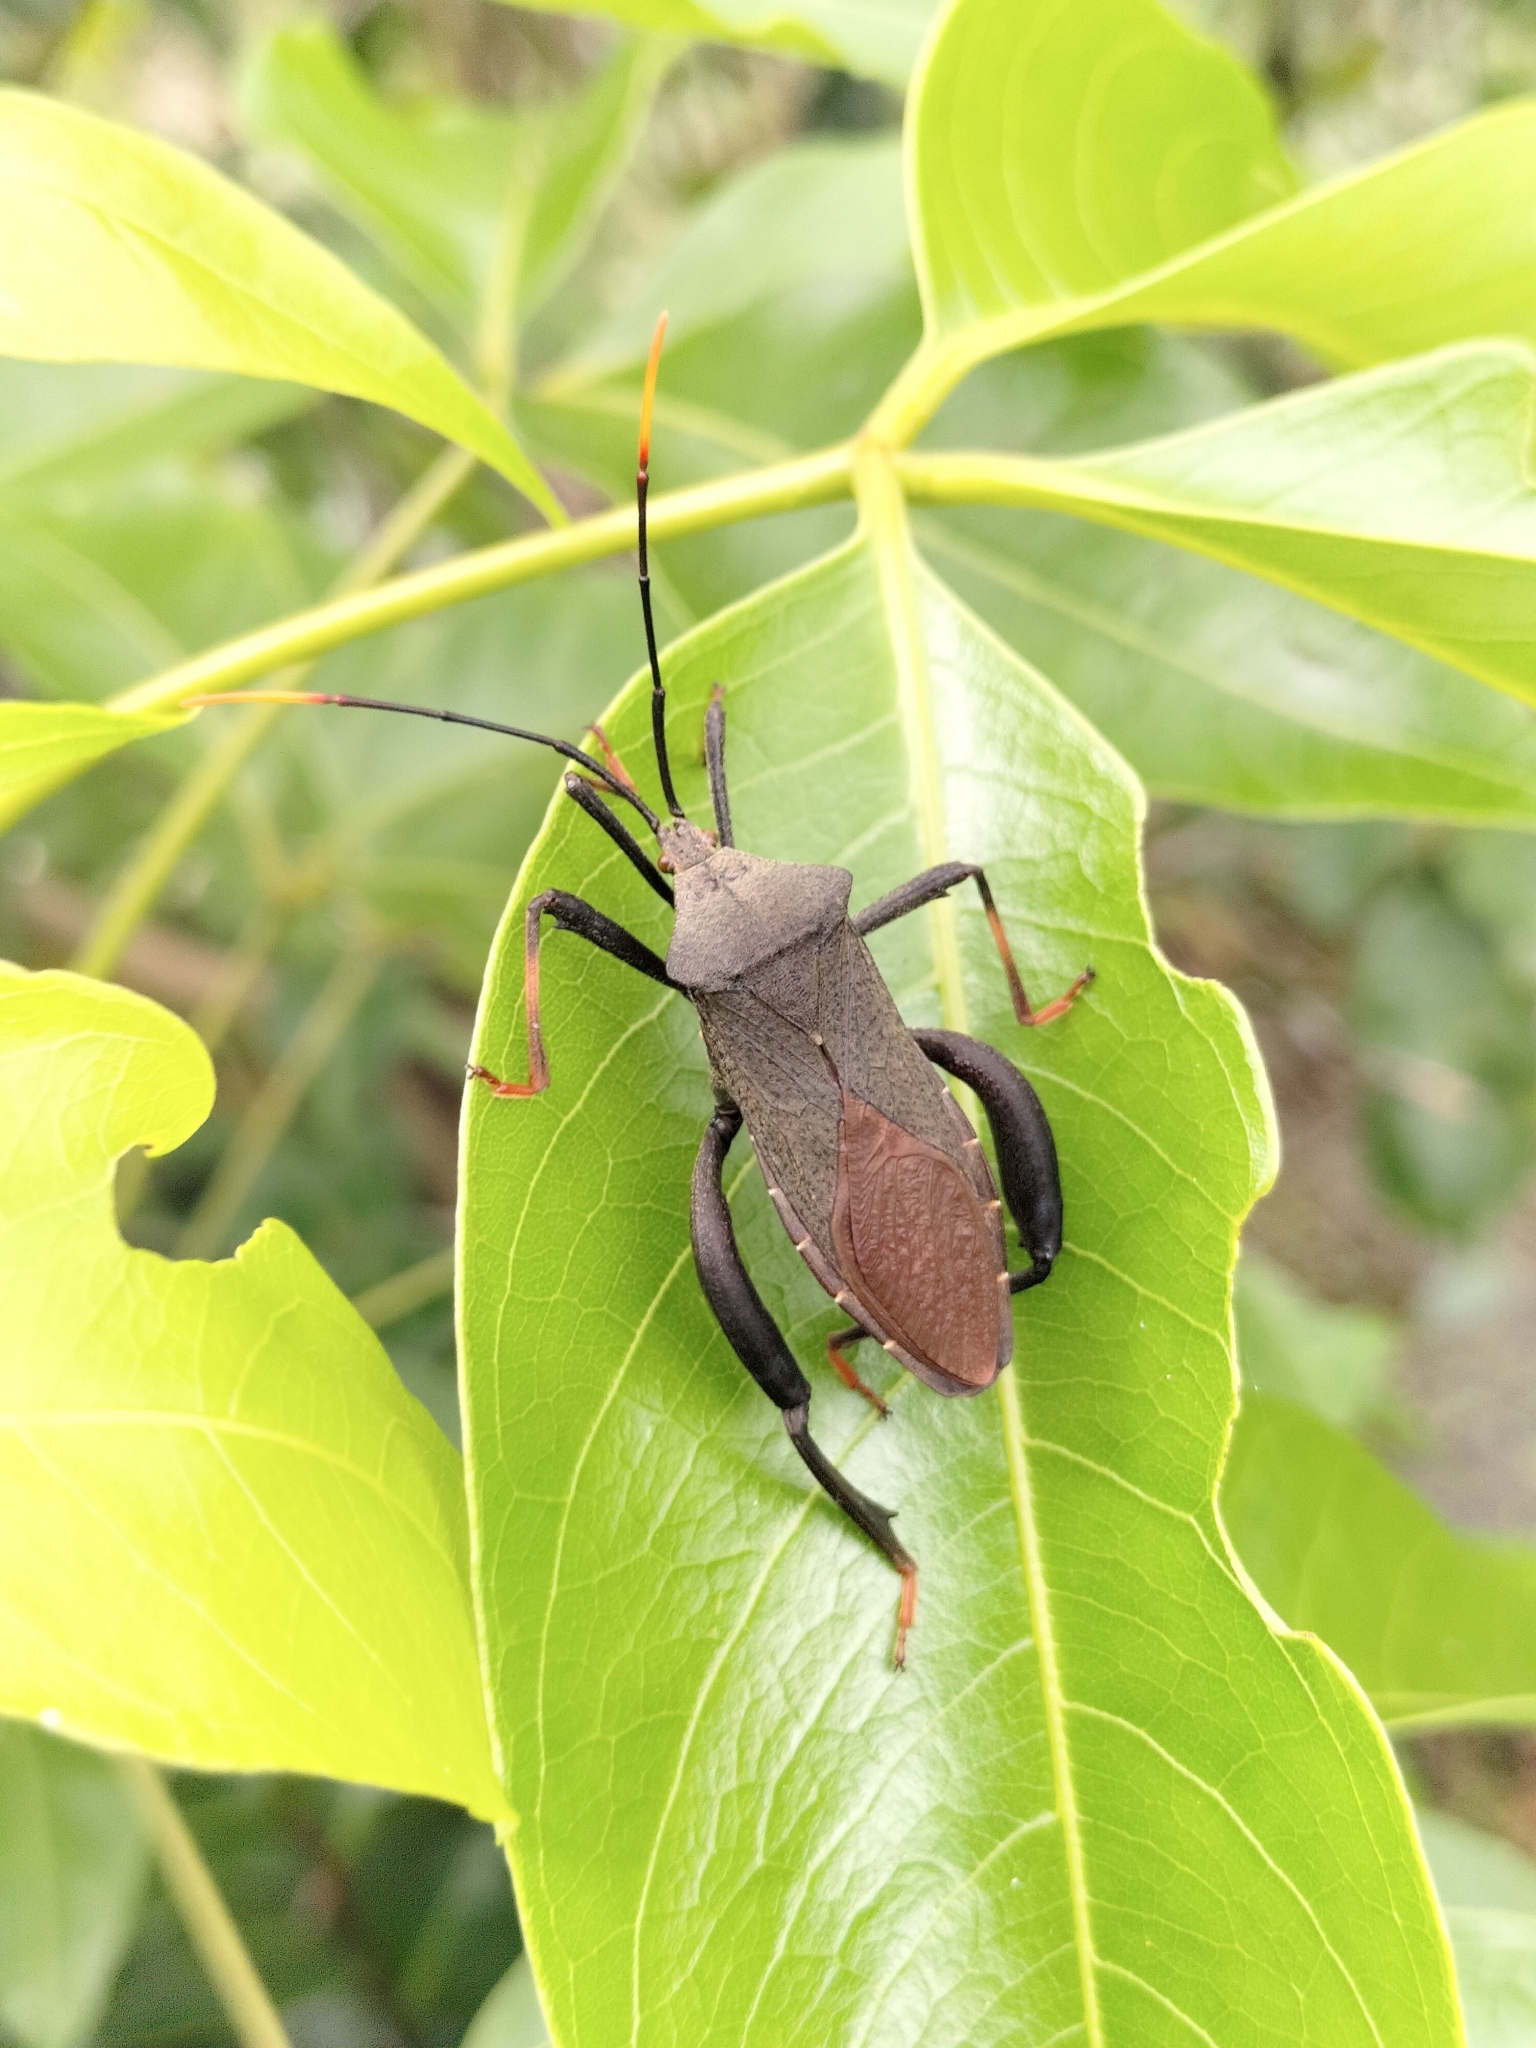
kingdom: Animalia
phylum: Arthropoda
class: Insecta
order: Hemiptera
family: Coreidae
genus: Mictis
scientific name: Mictis fuscipes
